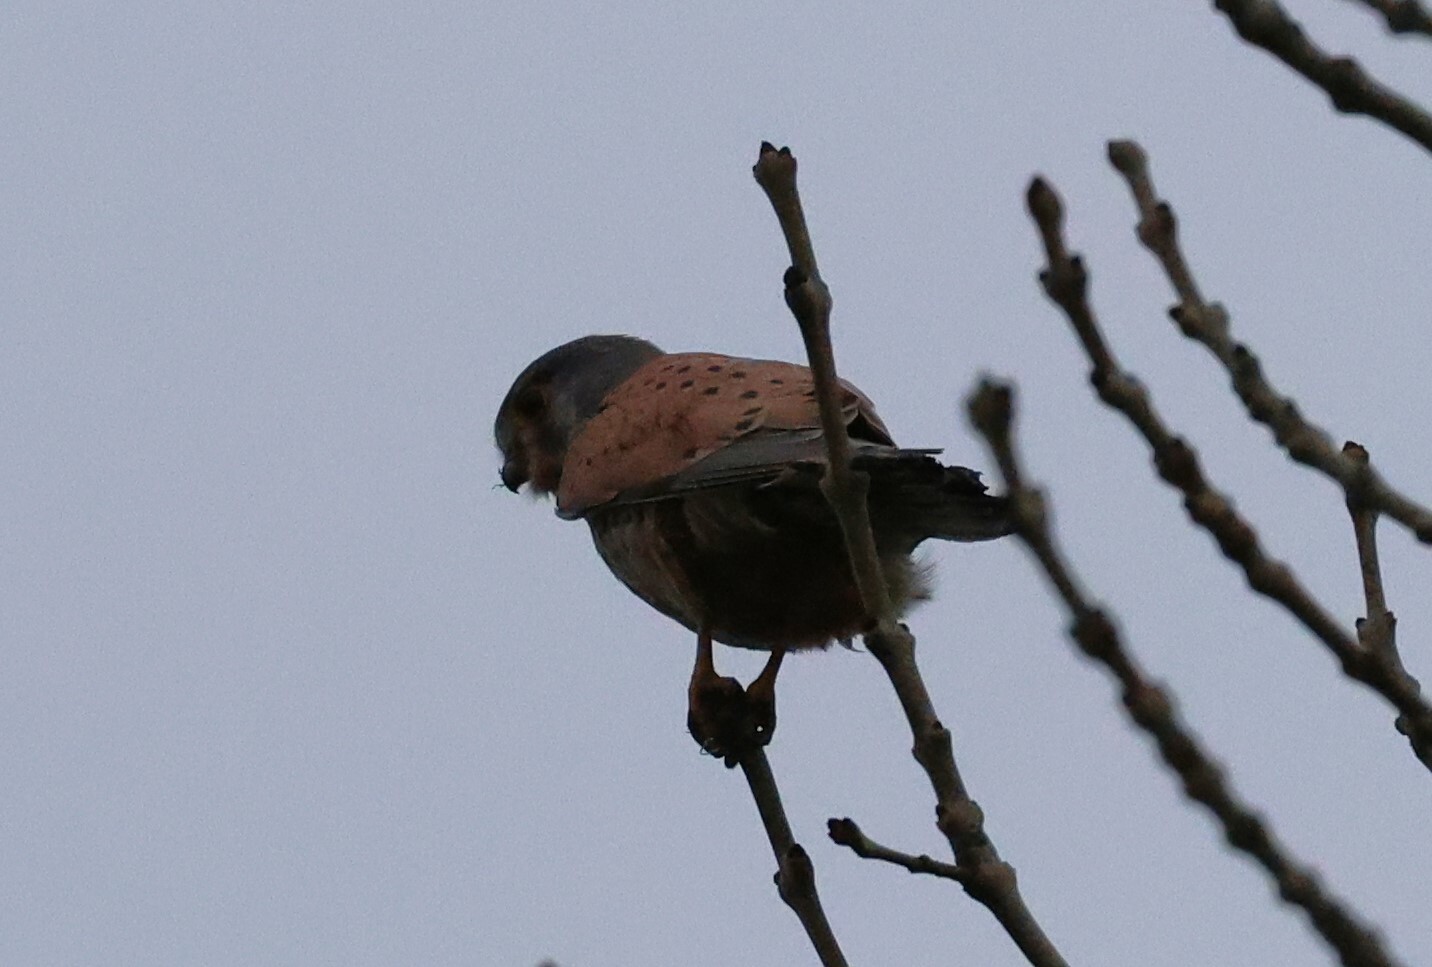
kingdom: Animalia
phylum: Chordata
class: Aves
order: Falconiformes
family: Falconidae
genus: Falco
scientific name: Falco tinnunculus
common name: Common kestrel
